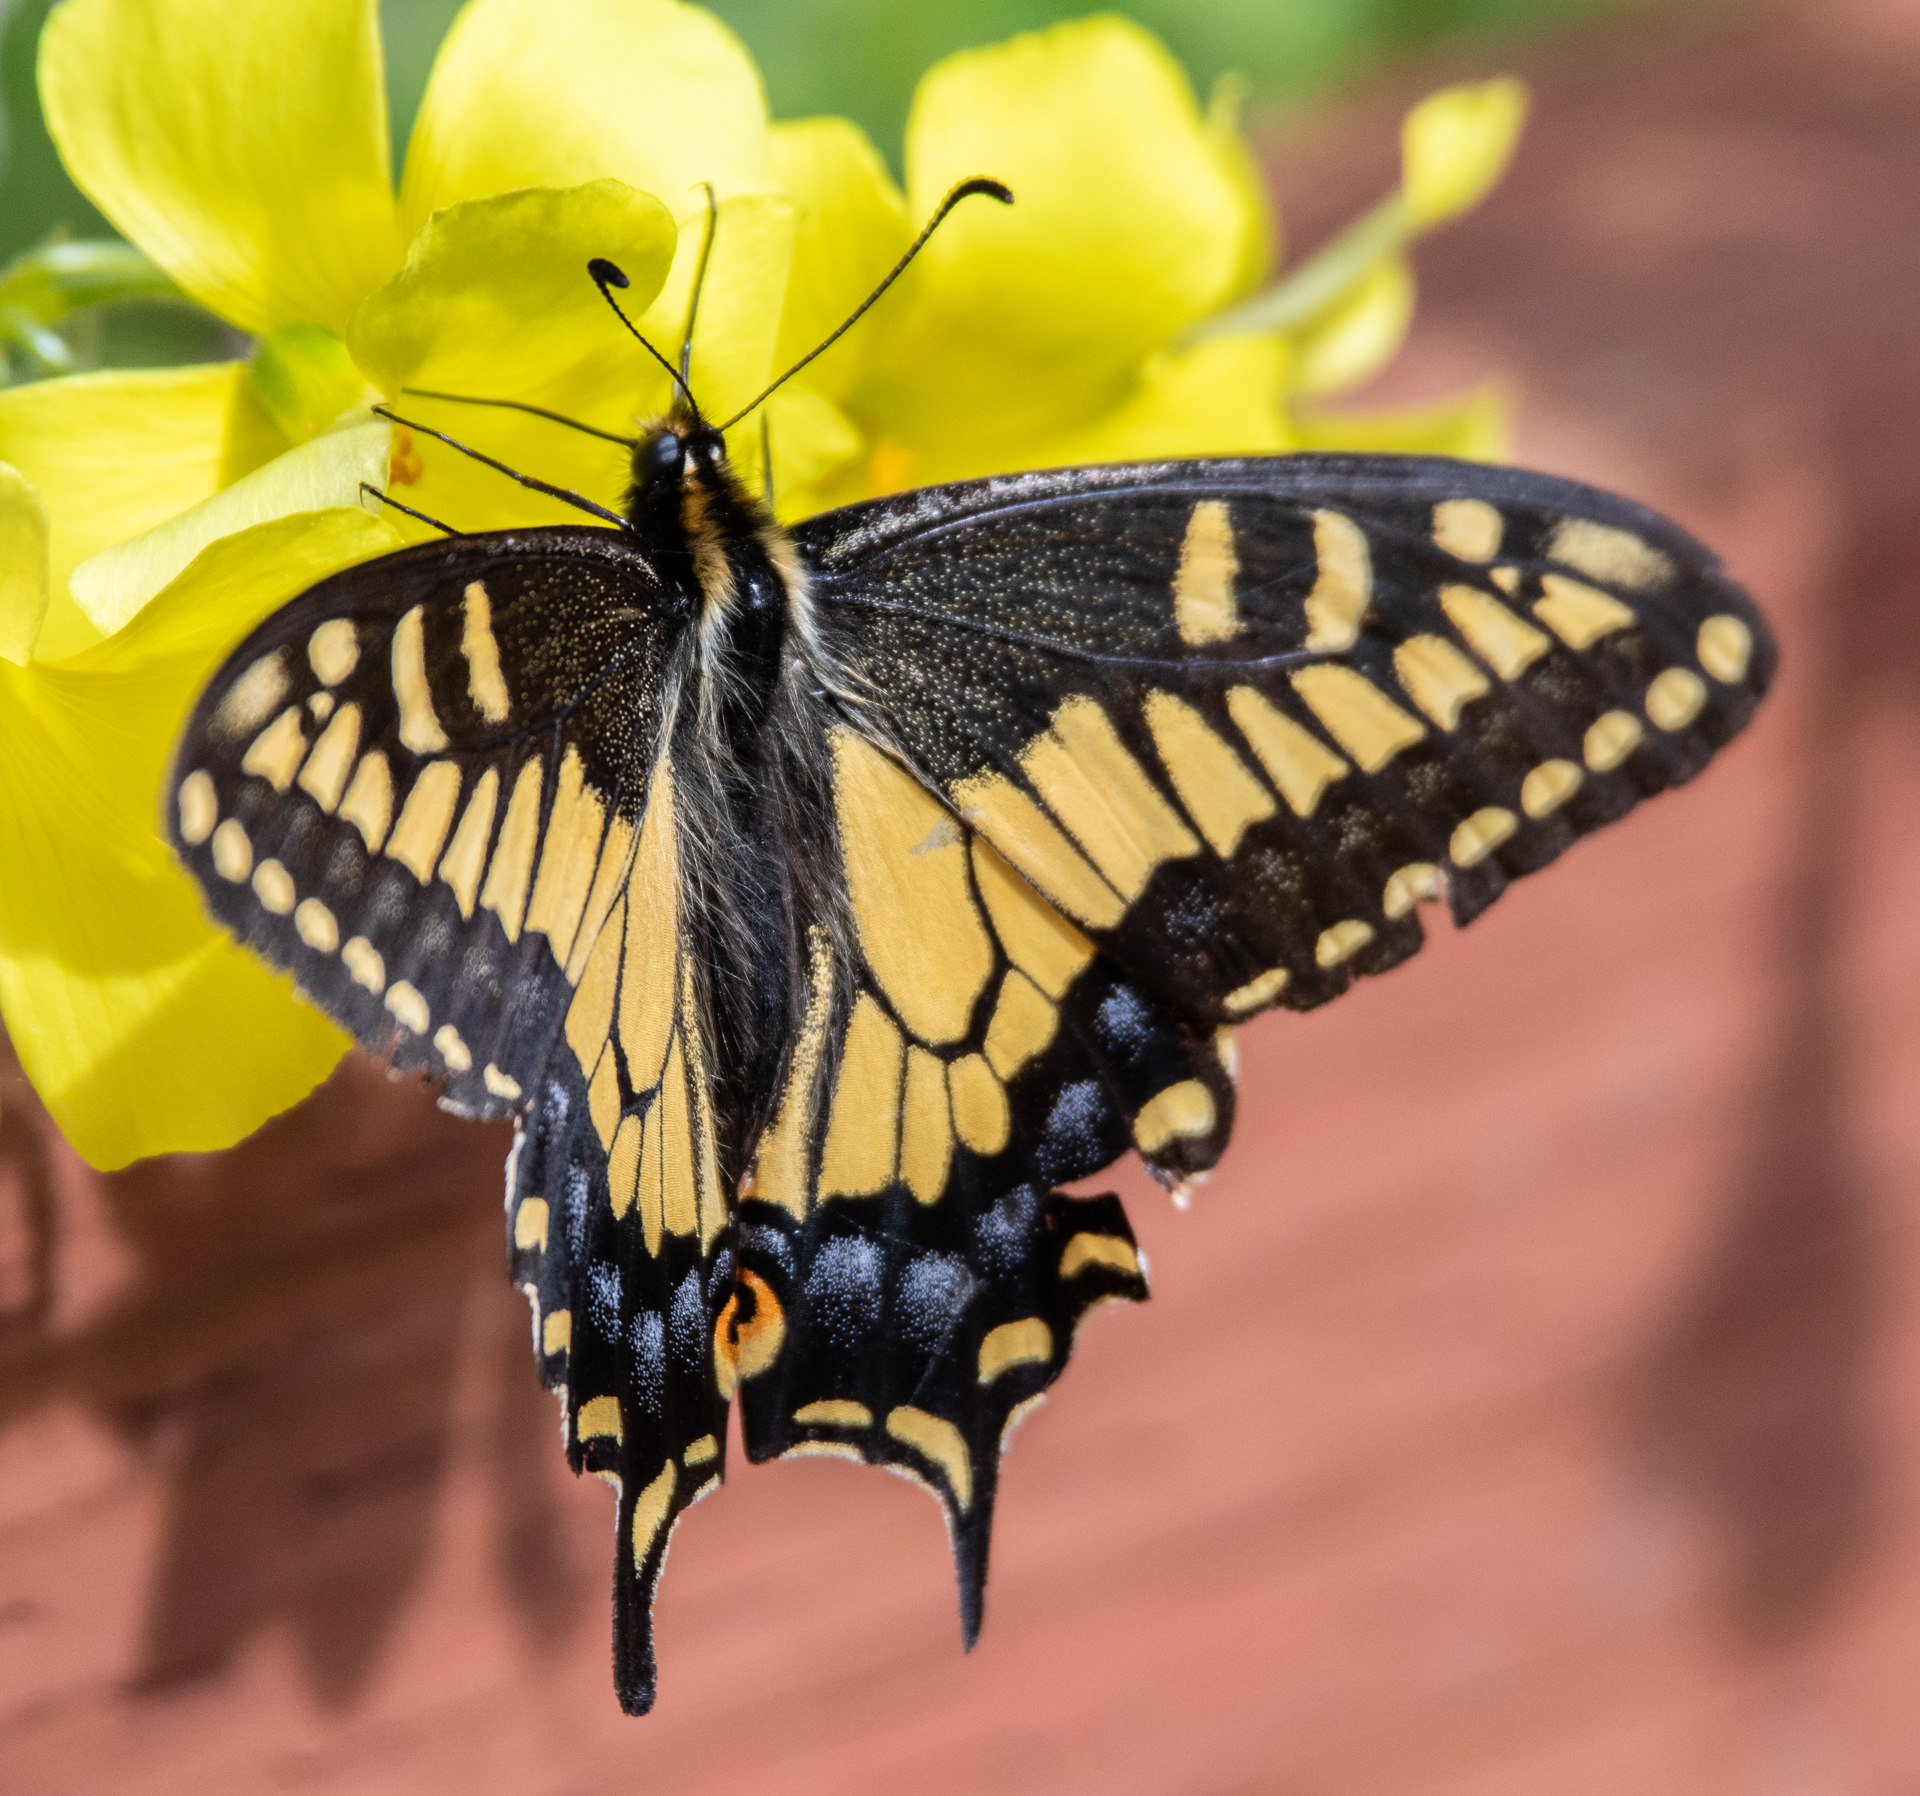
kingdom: Animalia
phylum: Arthropoda
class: Insecta
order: Lepidoptera
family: Papilionidae
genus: Papilio
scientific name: Papilio zelicaon
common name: Anise swallowtail
